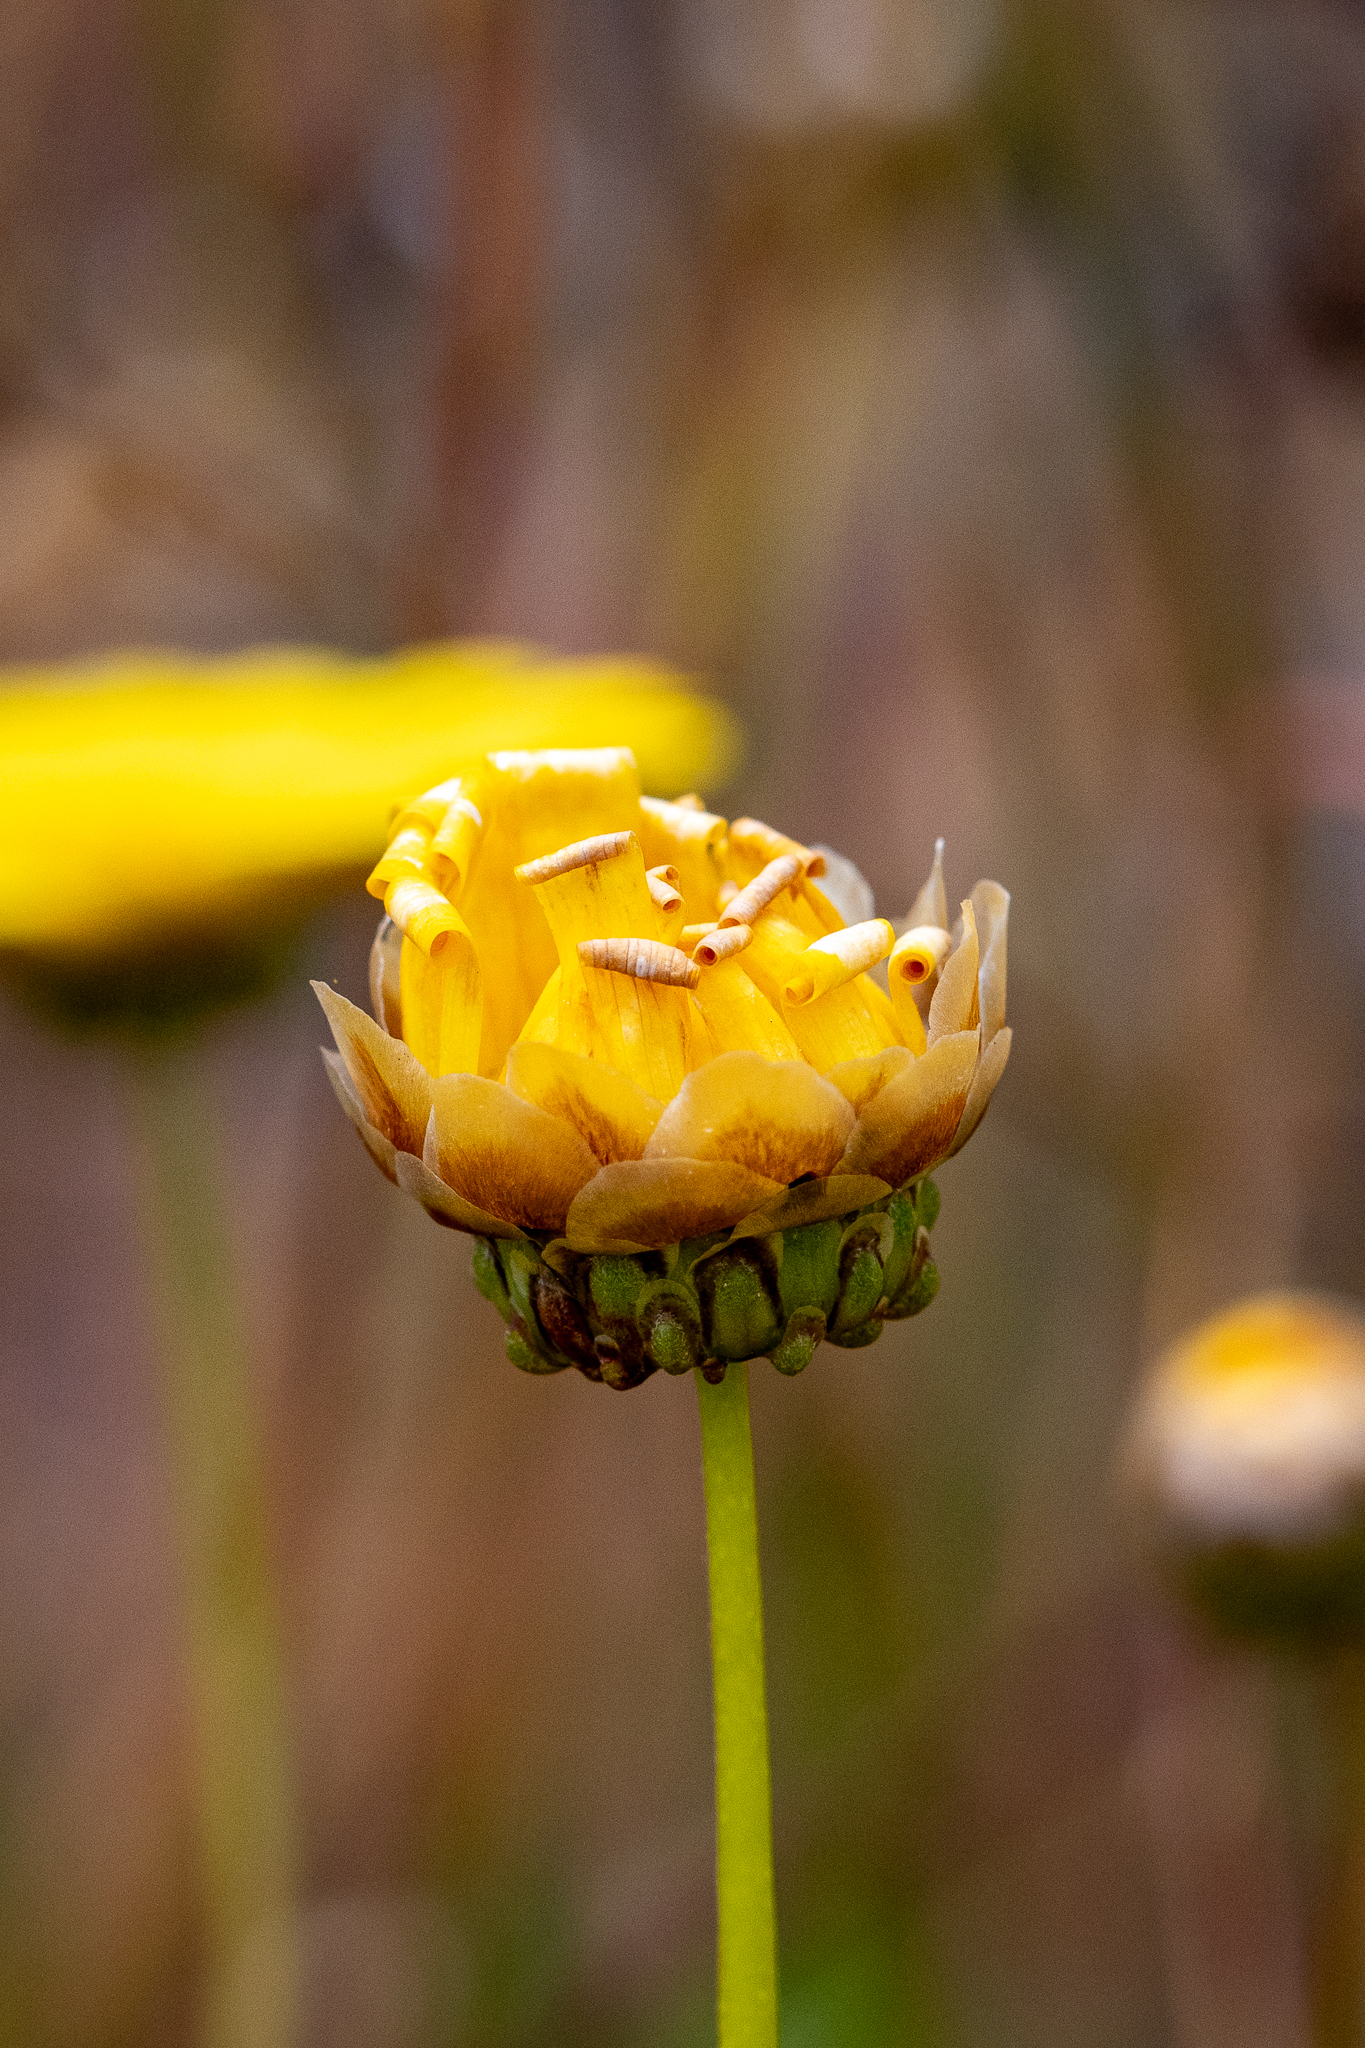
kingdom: Plantae
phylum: Tracheophyta
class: Magnoliopsida
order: Asterales
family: Asteraceae
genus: Ursinia
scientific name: Ursinia paleacea
